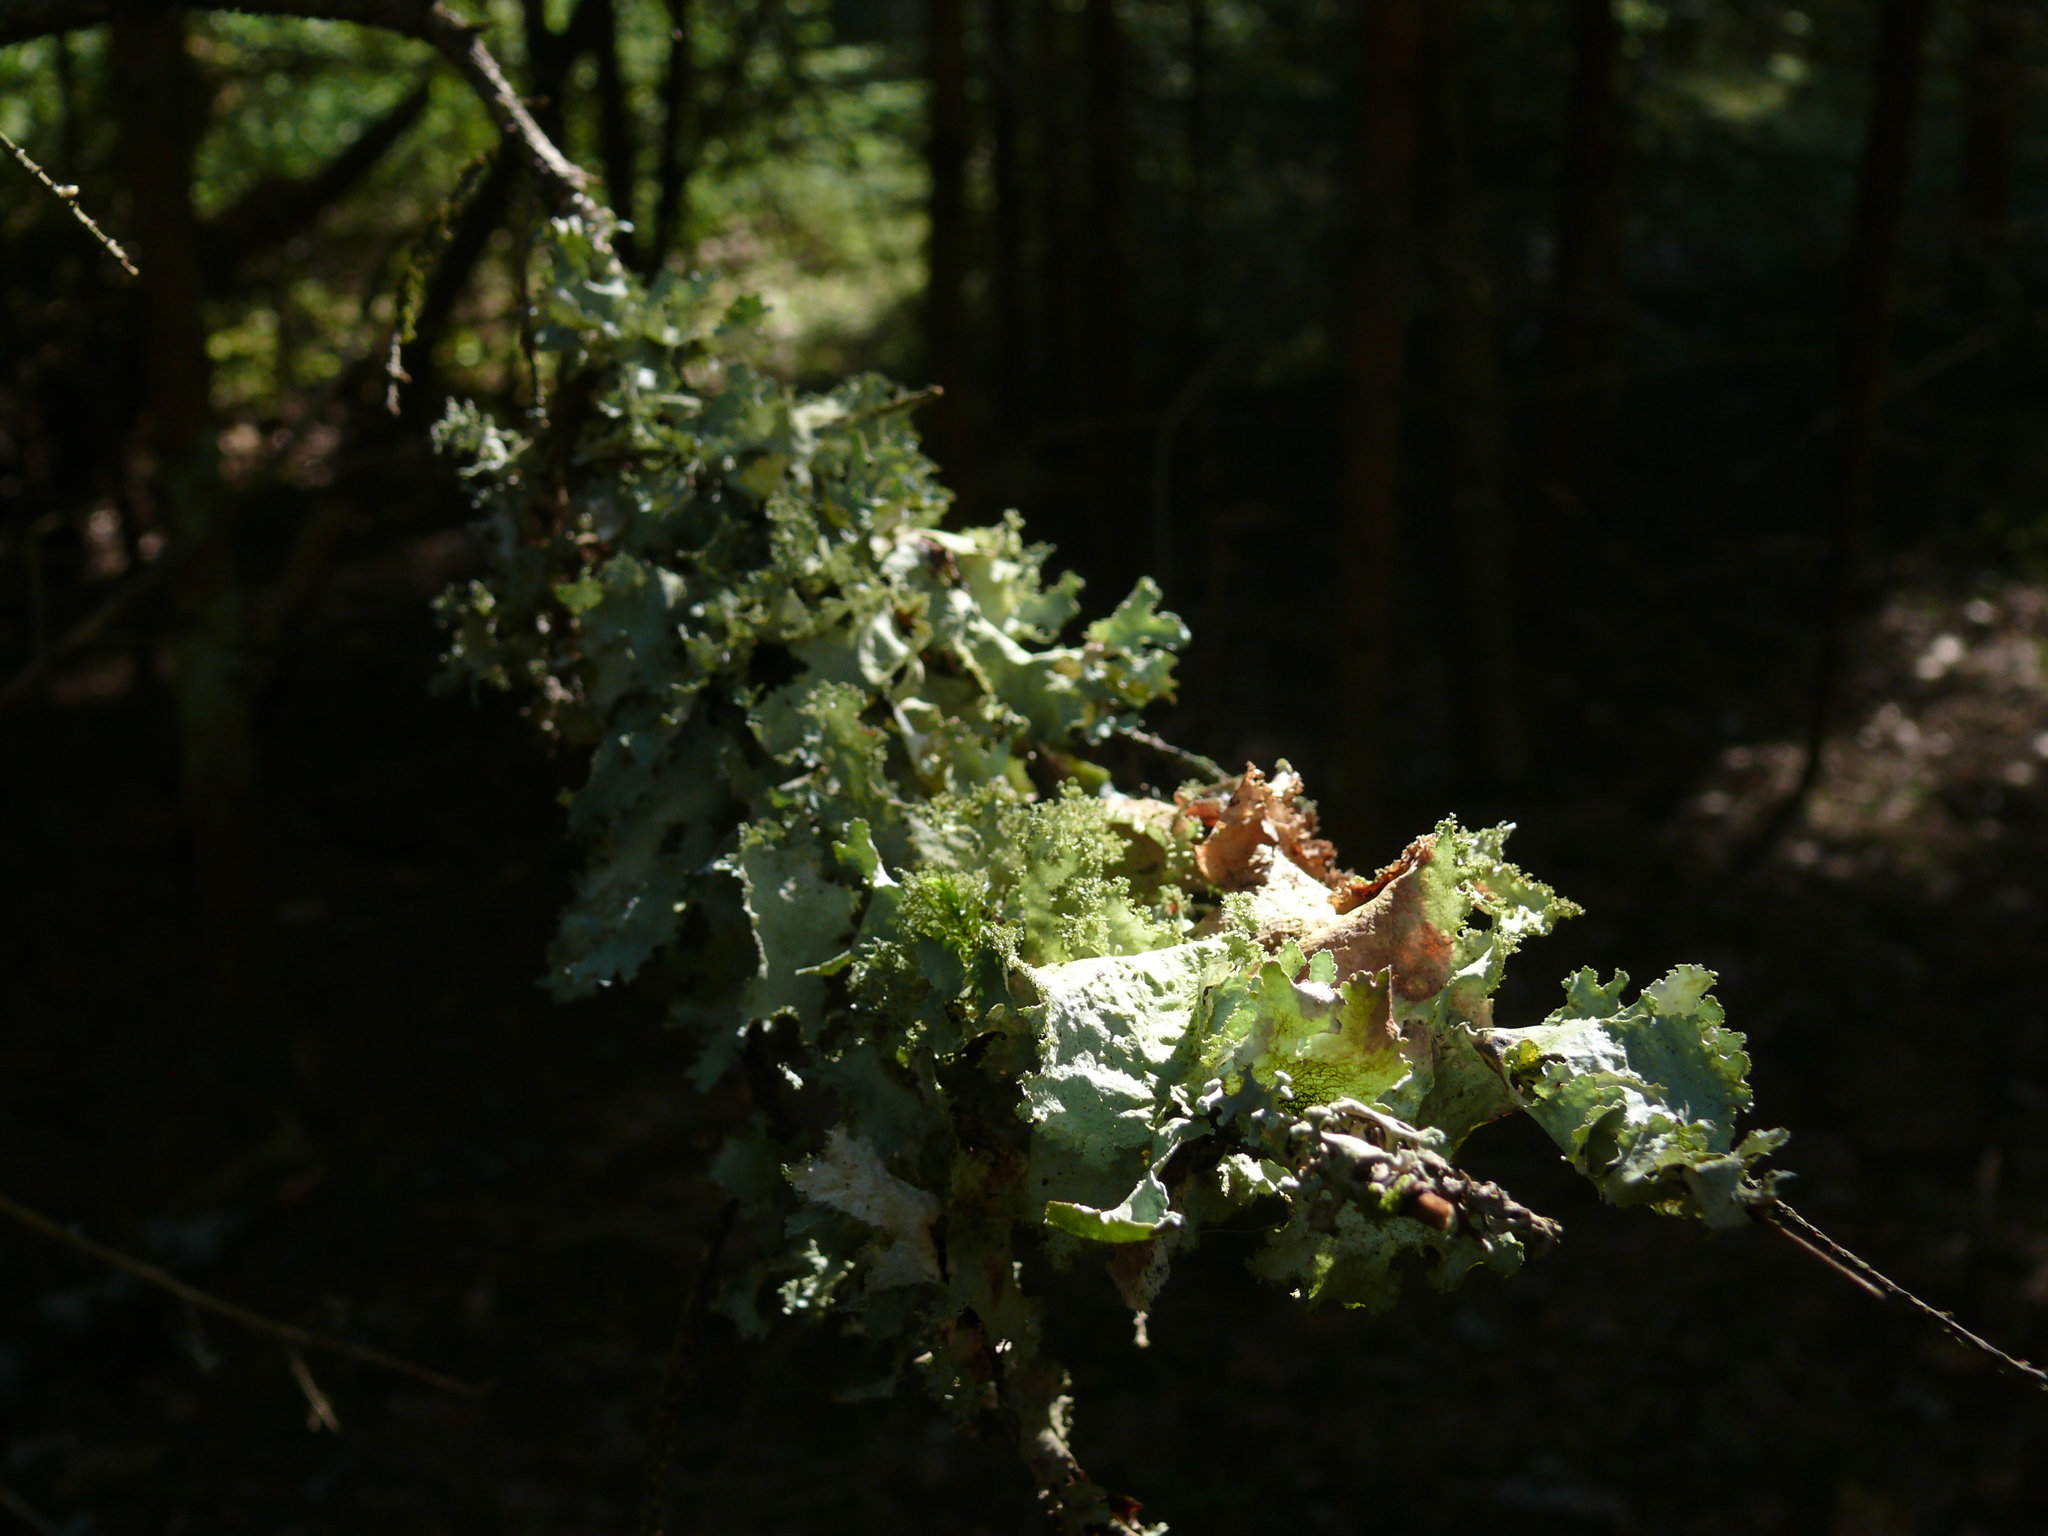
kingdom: Fungi
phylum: Ascomycota
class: Lecanoromycetes
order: Lecanorales
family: Parmeliaceae
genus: Platismatia
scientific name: Platismatia glauca
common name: Varied rag lichen
